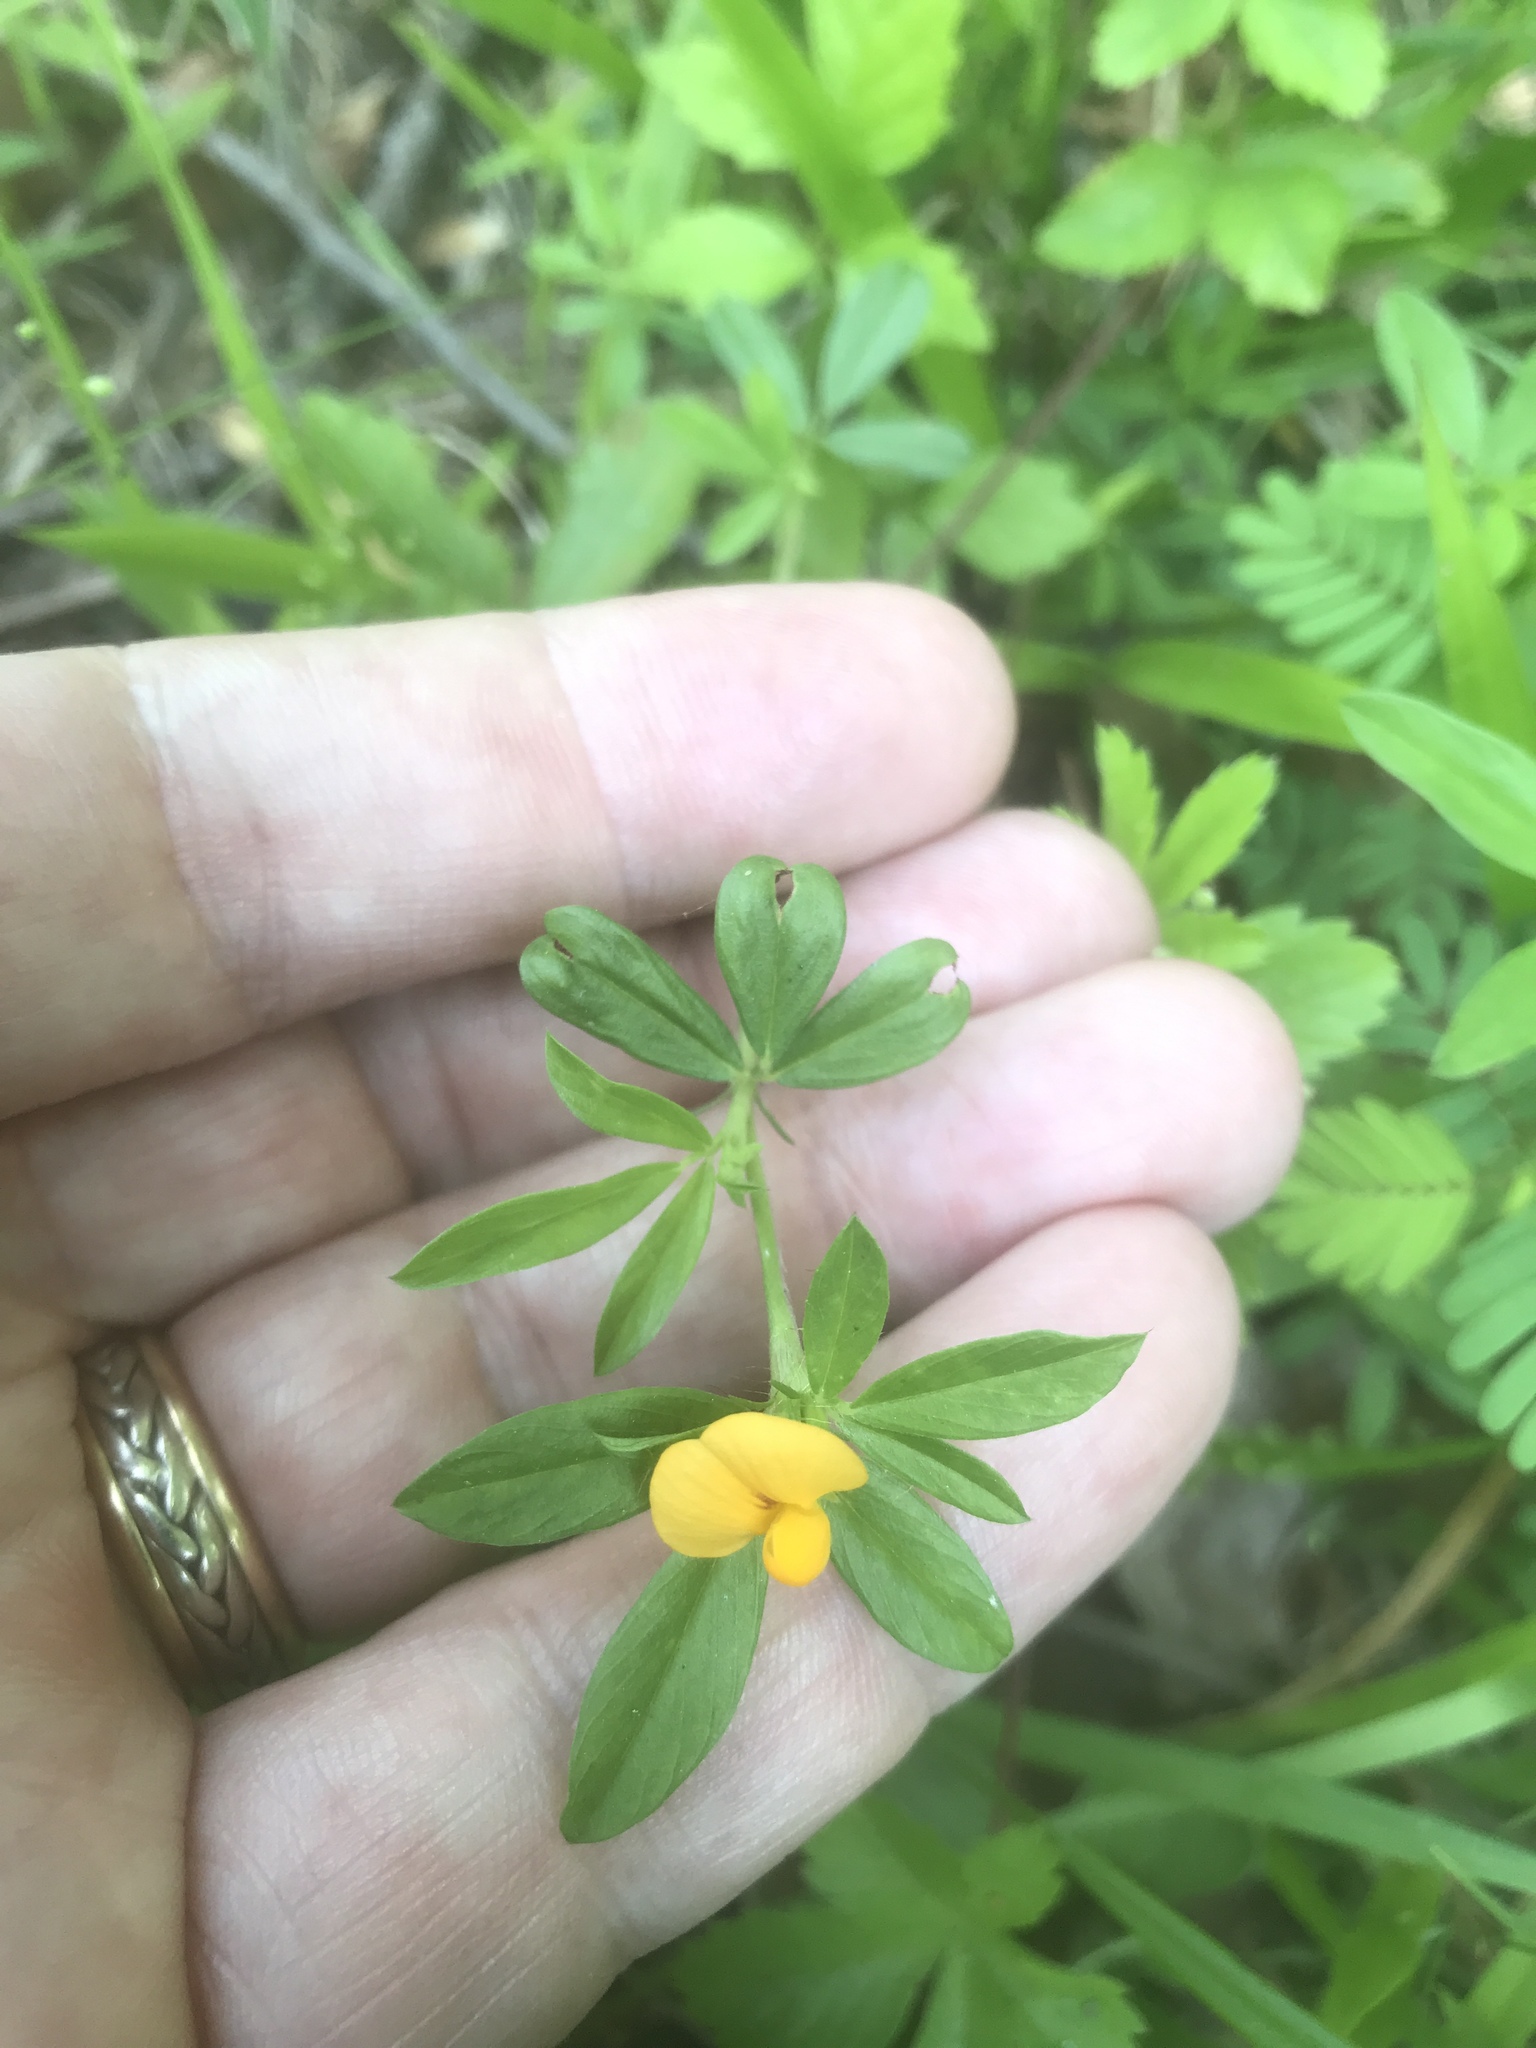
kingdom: Plantae
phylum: Tracheophyta
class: Magnoliopsida
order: Fabales
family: Fabaceae
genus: Stylosanthes
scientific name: Stylosanthes biflora
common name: Two-flower pencil-flower
